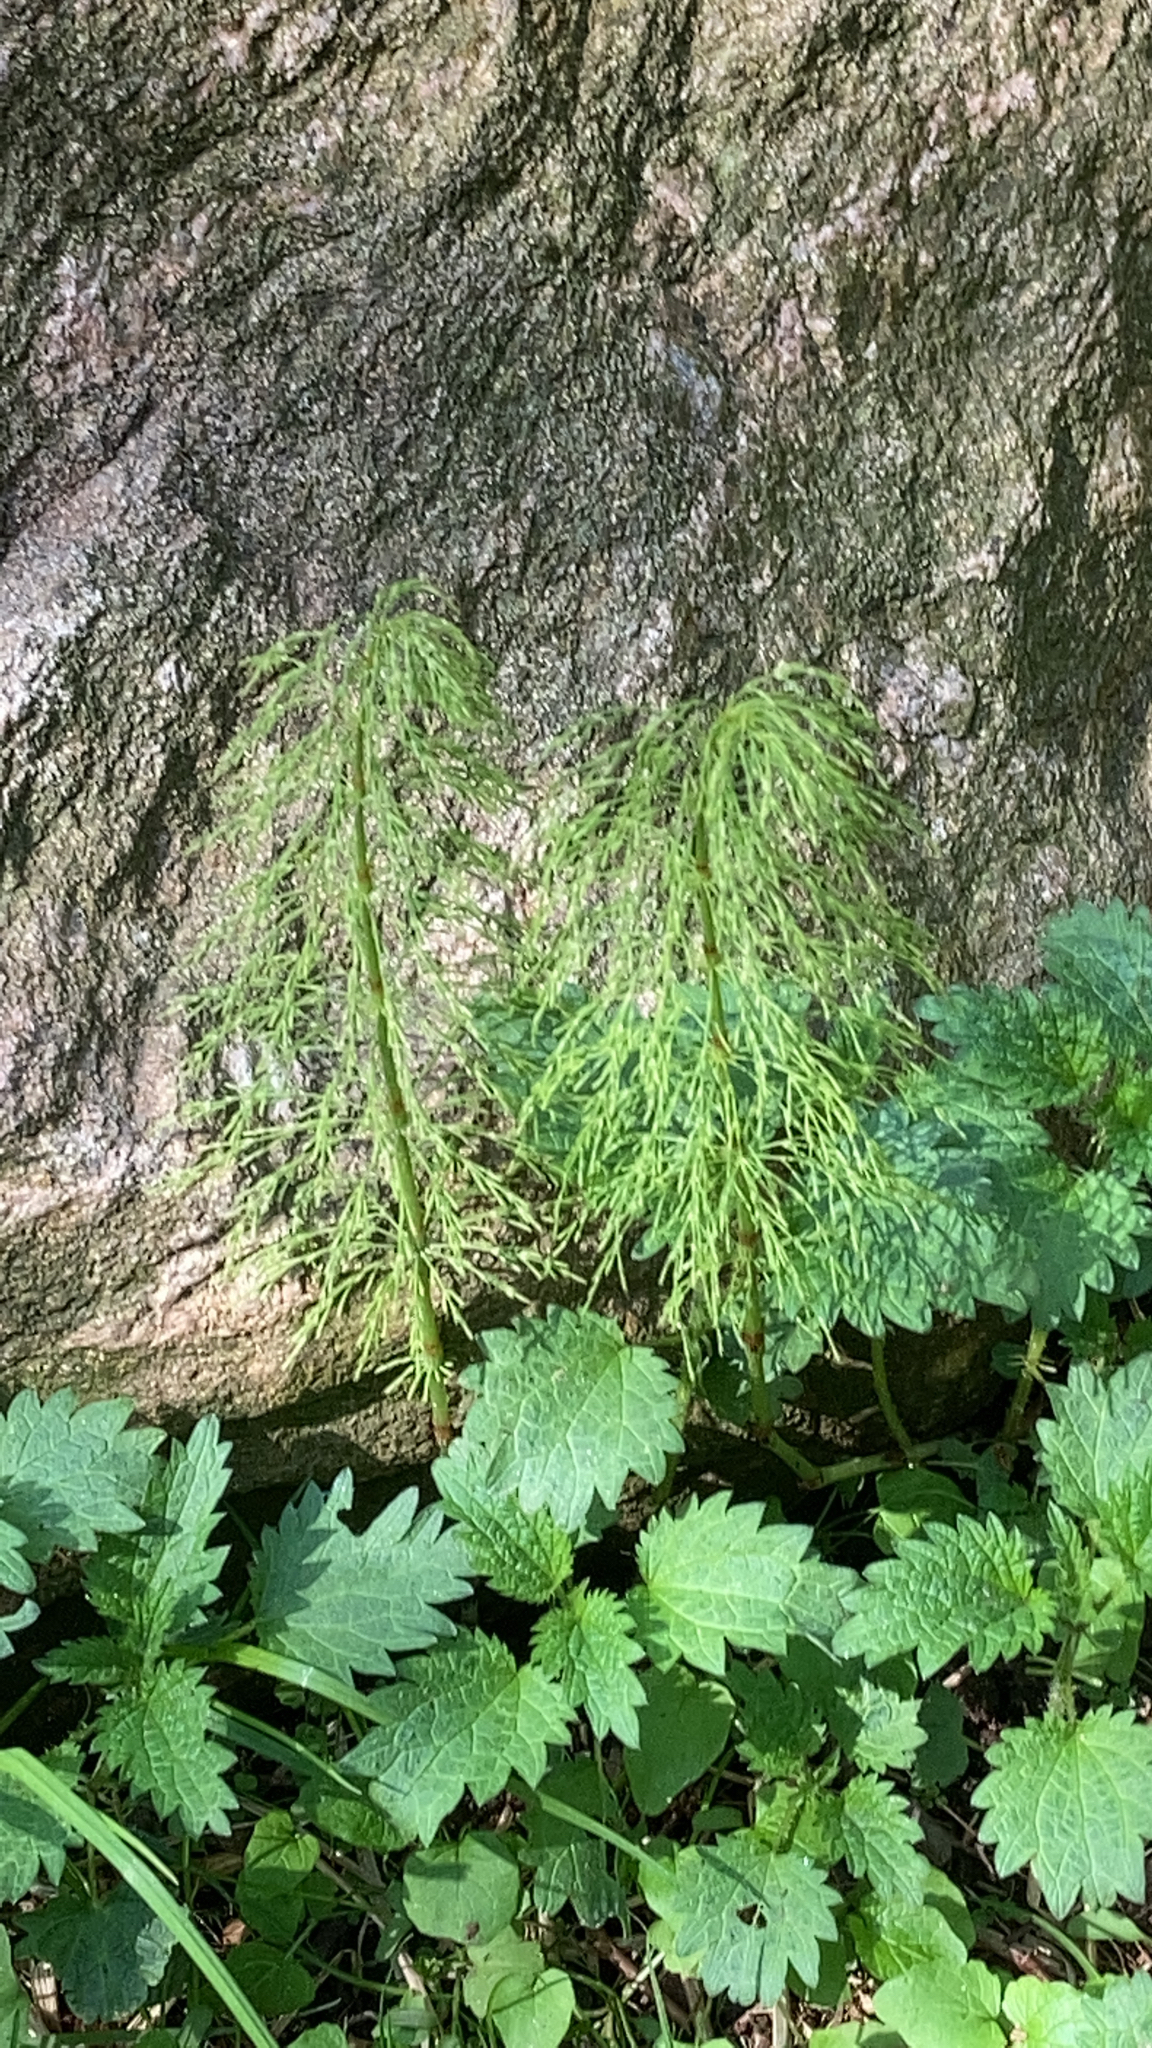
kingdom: Plantae
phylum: Tracheophyta
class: Polypodiopsida
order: Equisetales
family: Equisetaceae
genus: Equisetum
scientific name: Equisetum sylvaticum
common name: Wood horsetail
